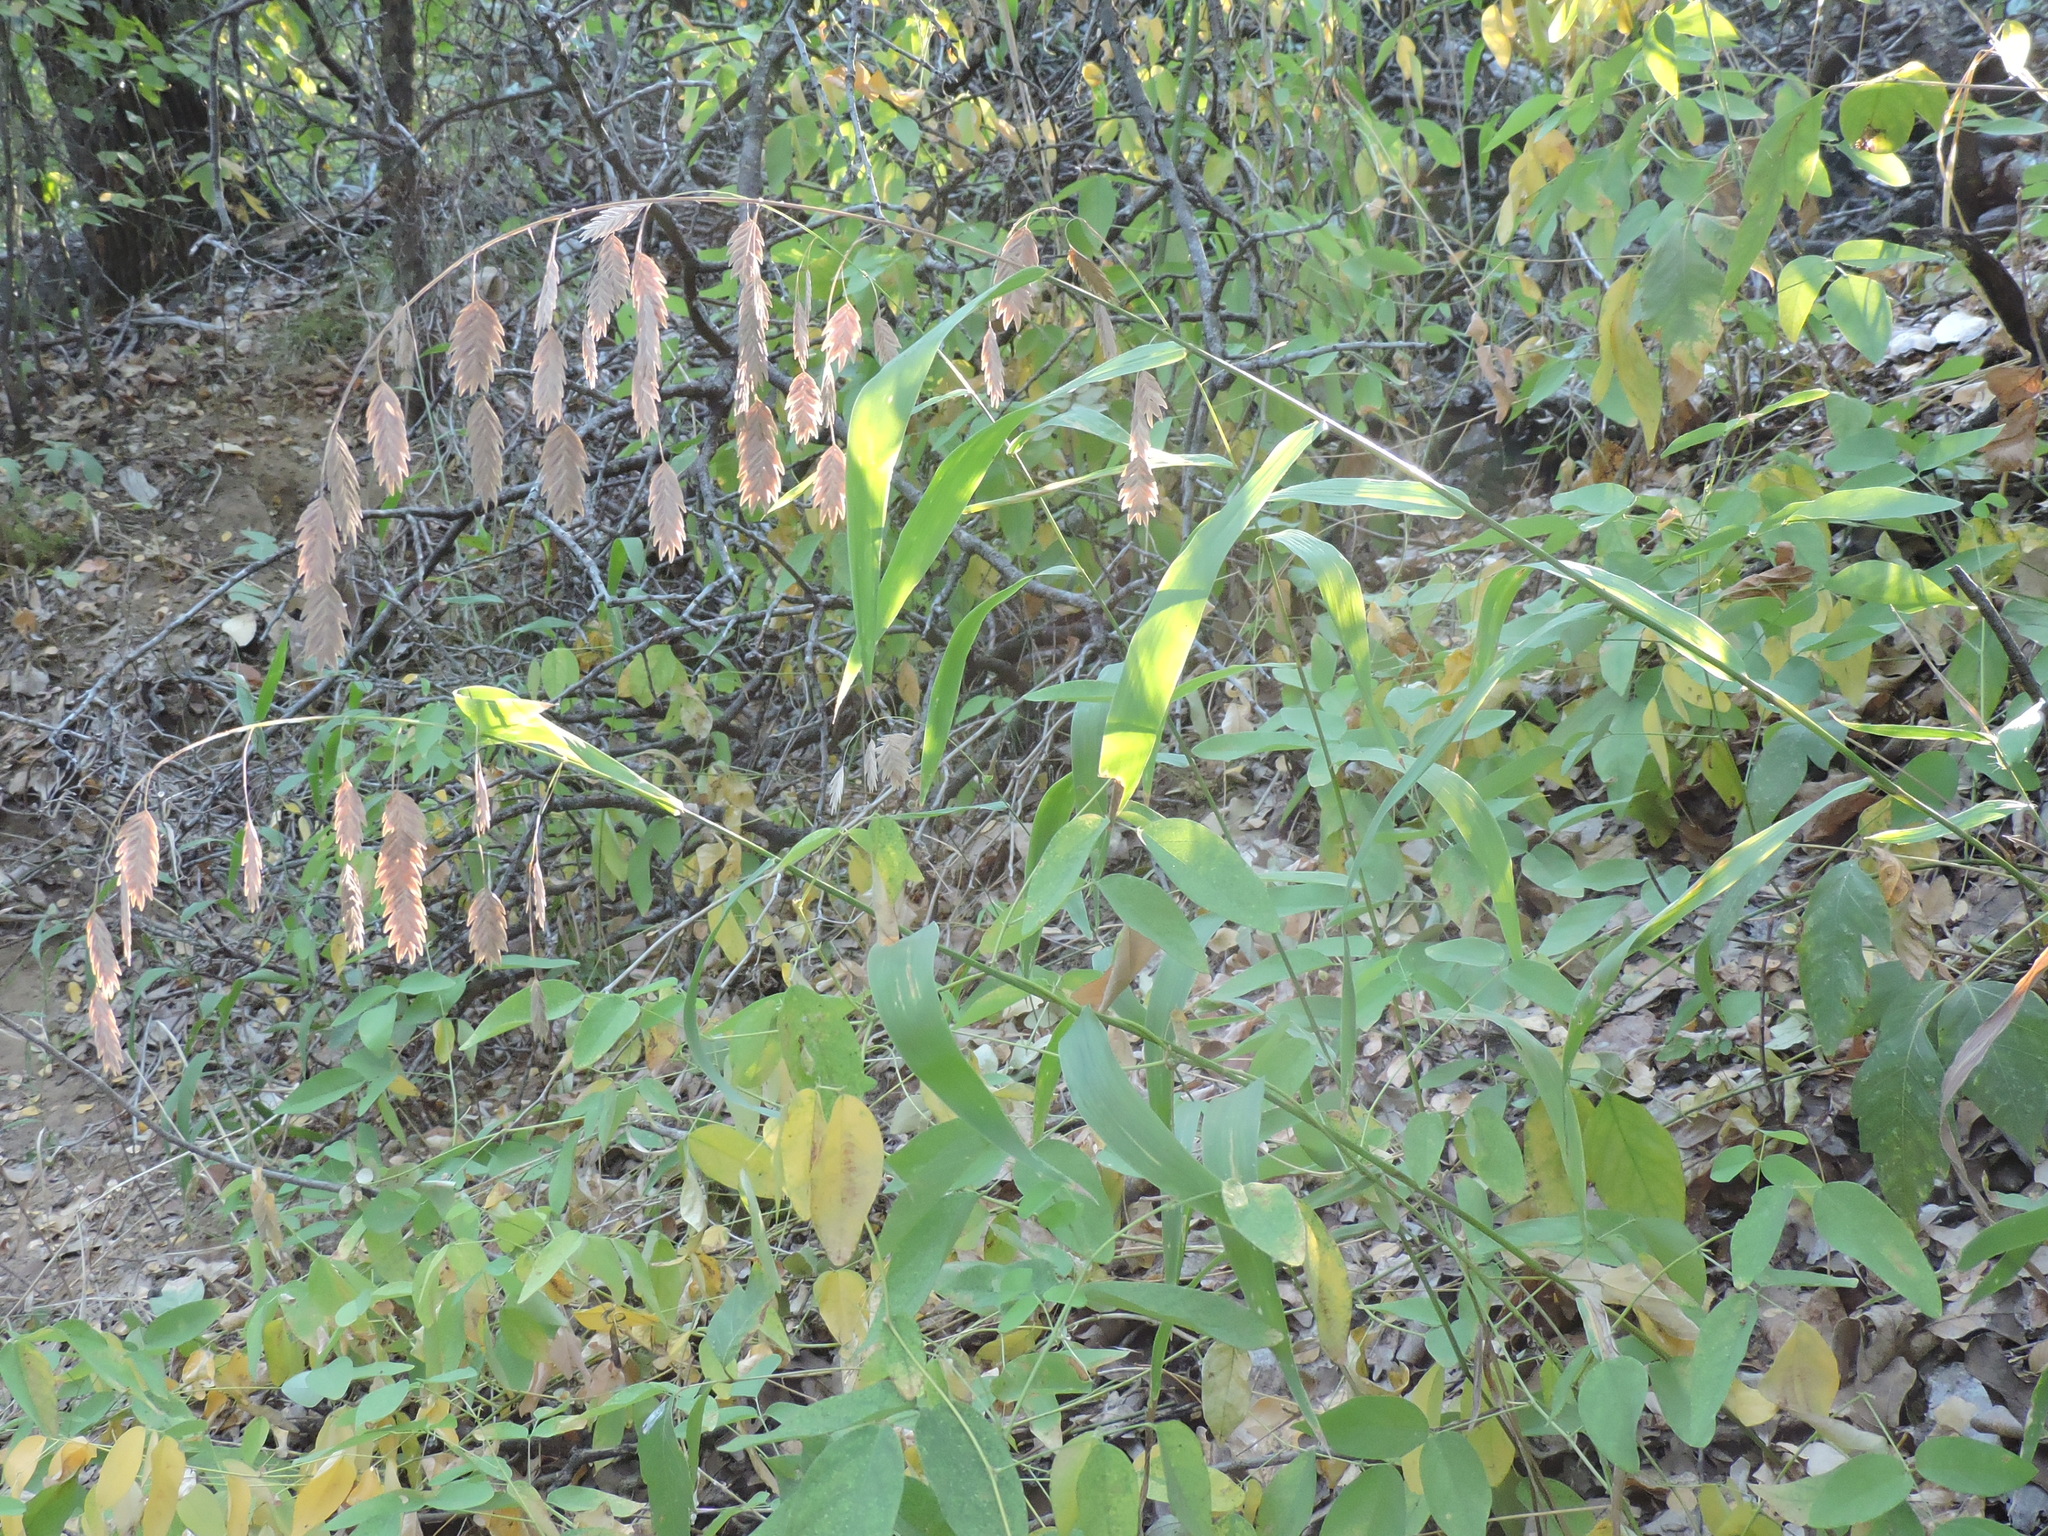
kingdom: Plantae
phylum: Tracheophyta
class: Liliopsida
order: Poales
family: Poaceae
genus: Chasmanthium
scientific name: Chasmanthium latifolium
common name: Broad-leaved chasmanthium
